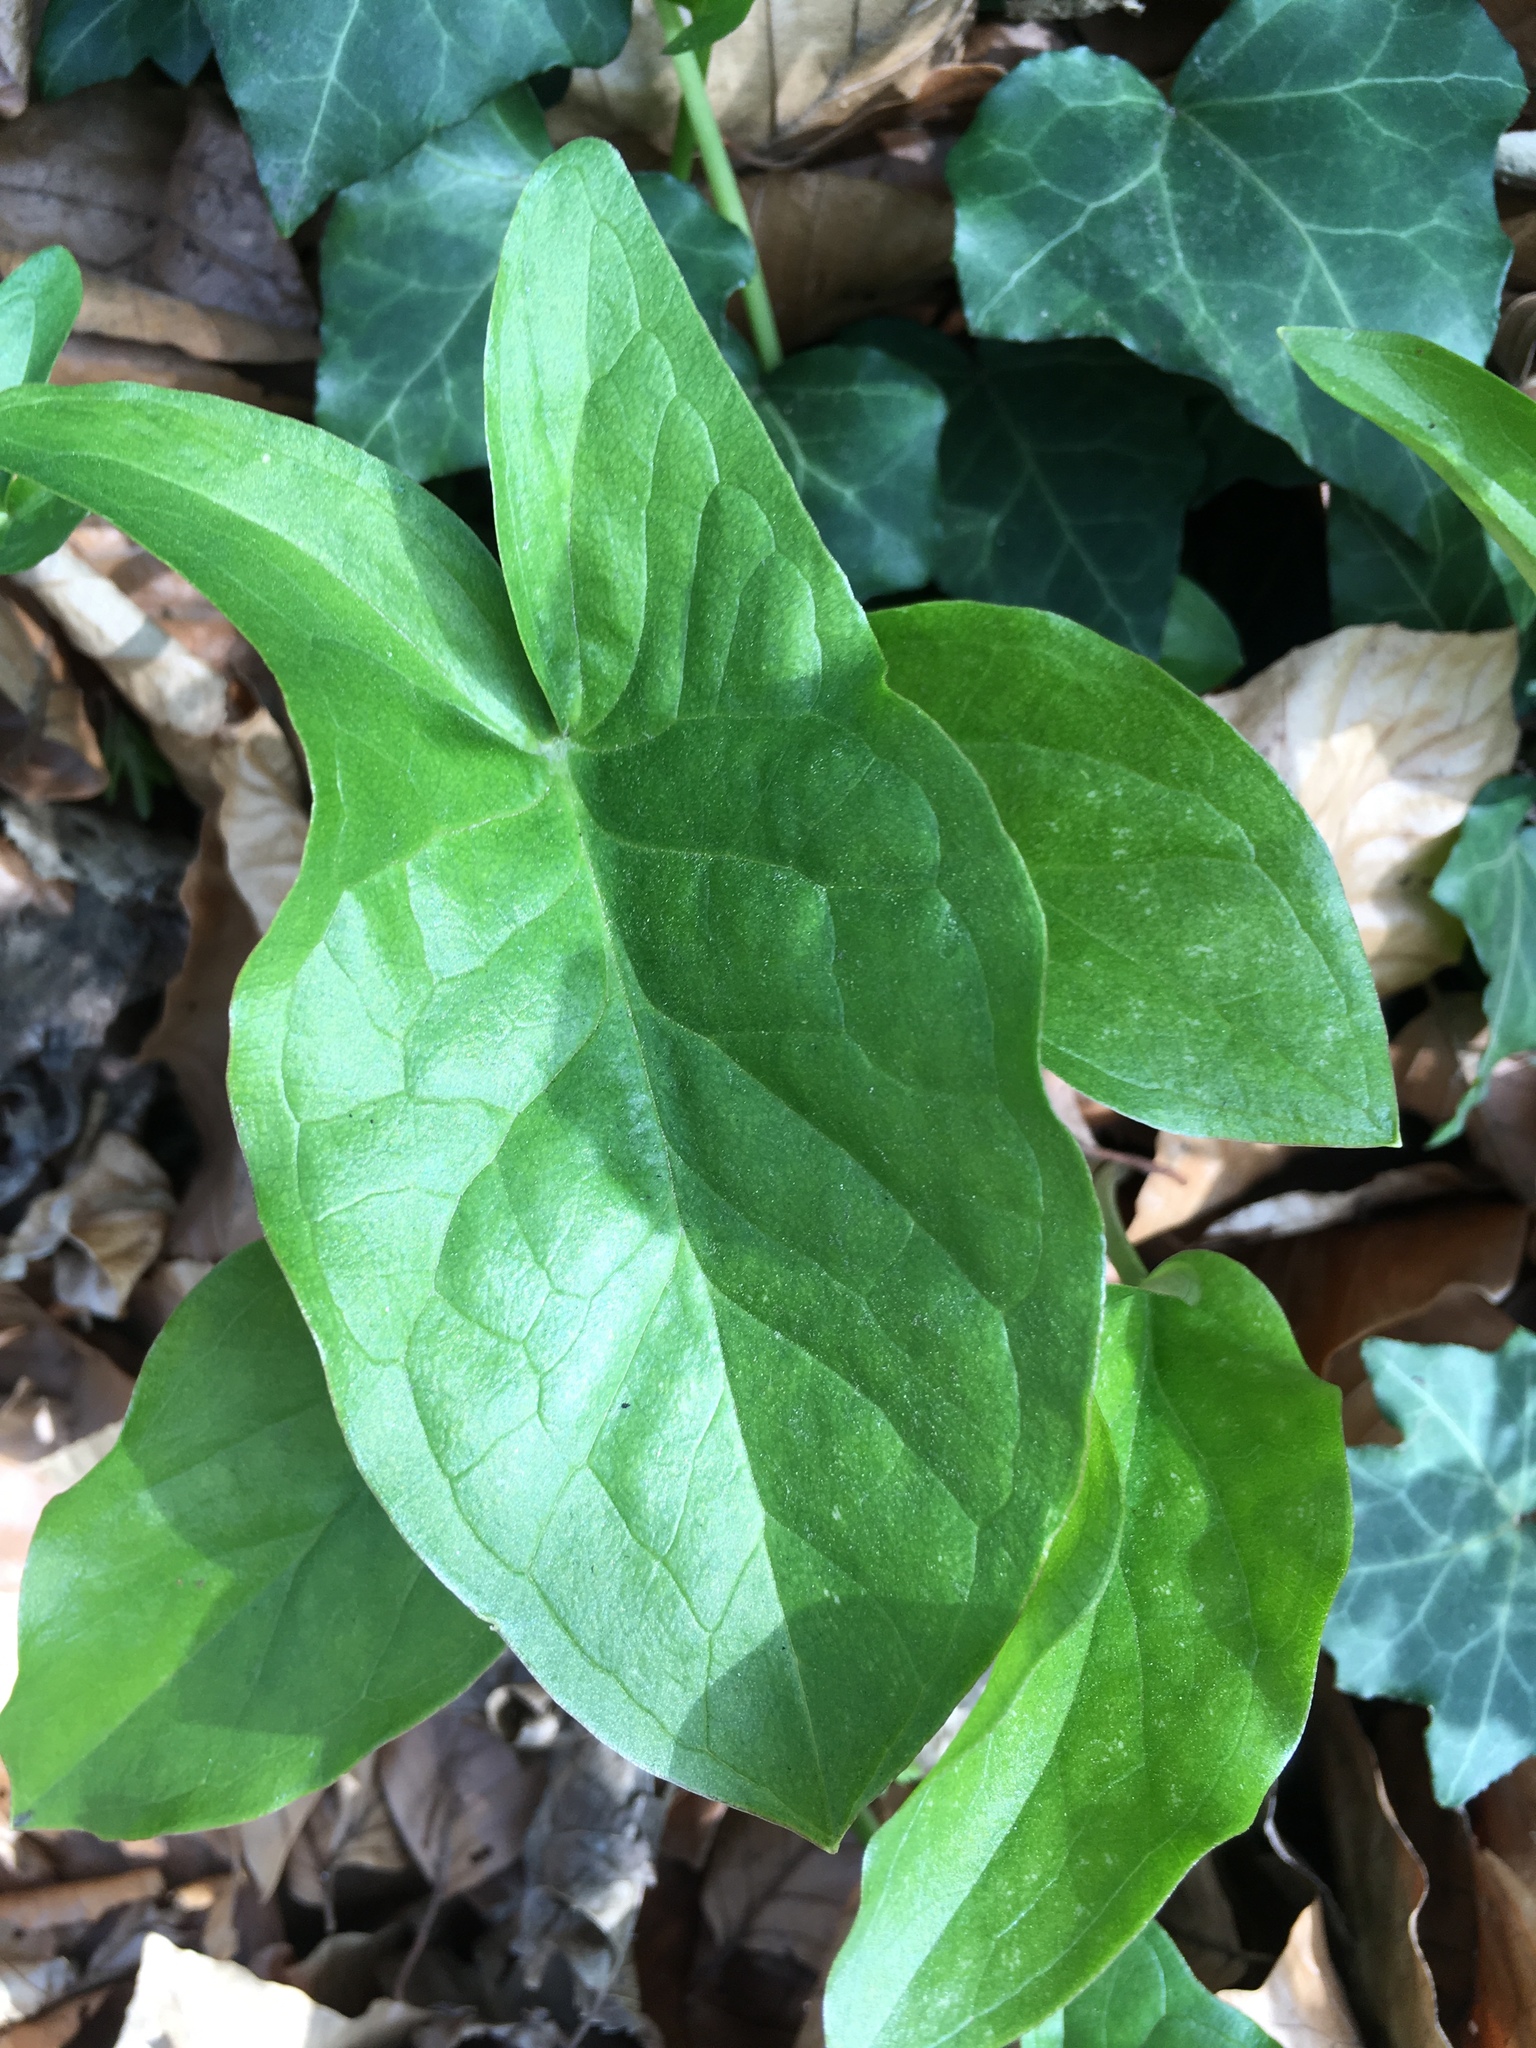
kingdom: Plantae
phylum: Tracheophyta
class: Liliopsida
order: Alismatales
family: Araceae
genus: Arum
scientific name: Arum maculatum
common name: Lords-and-ladies
